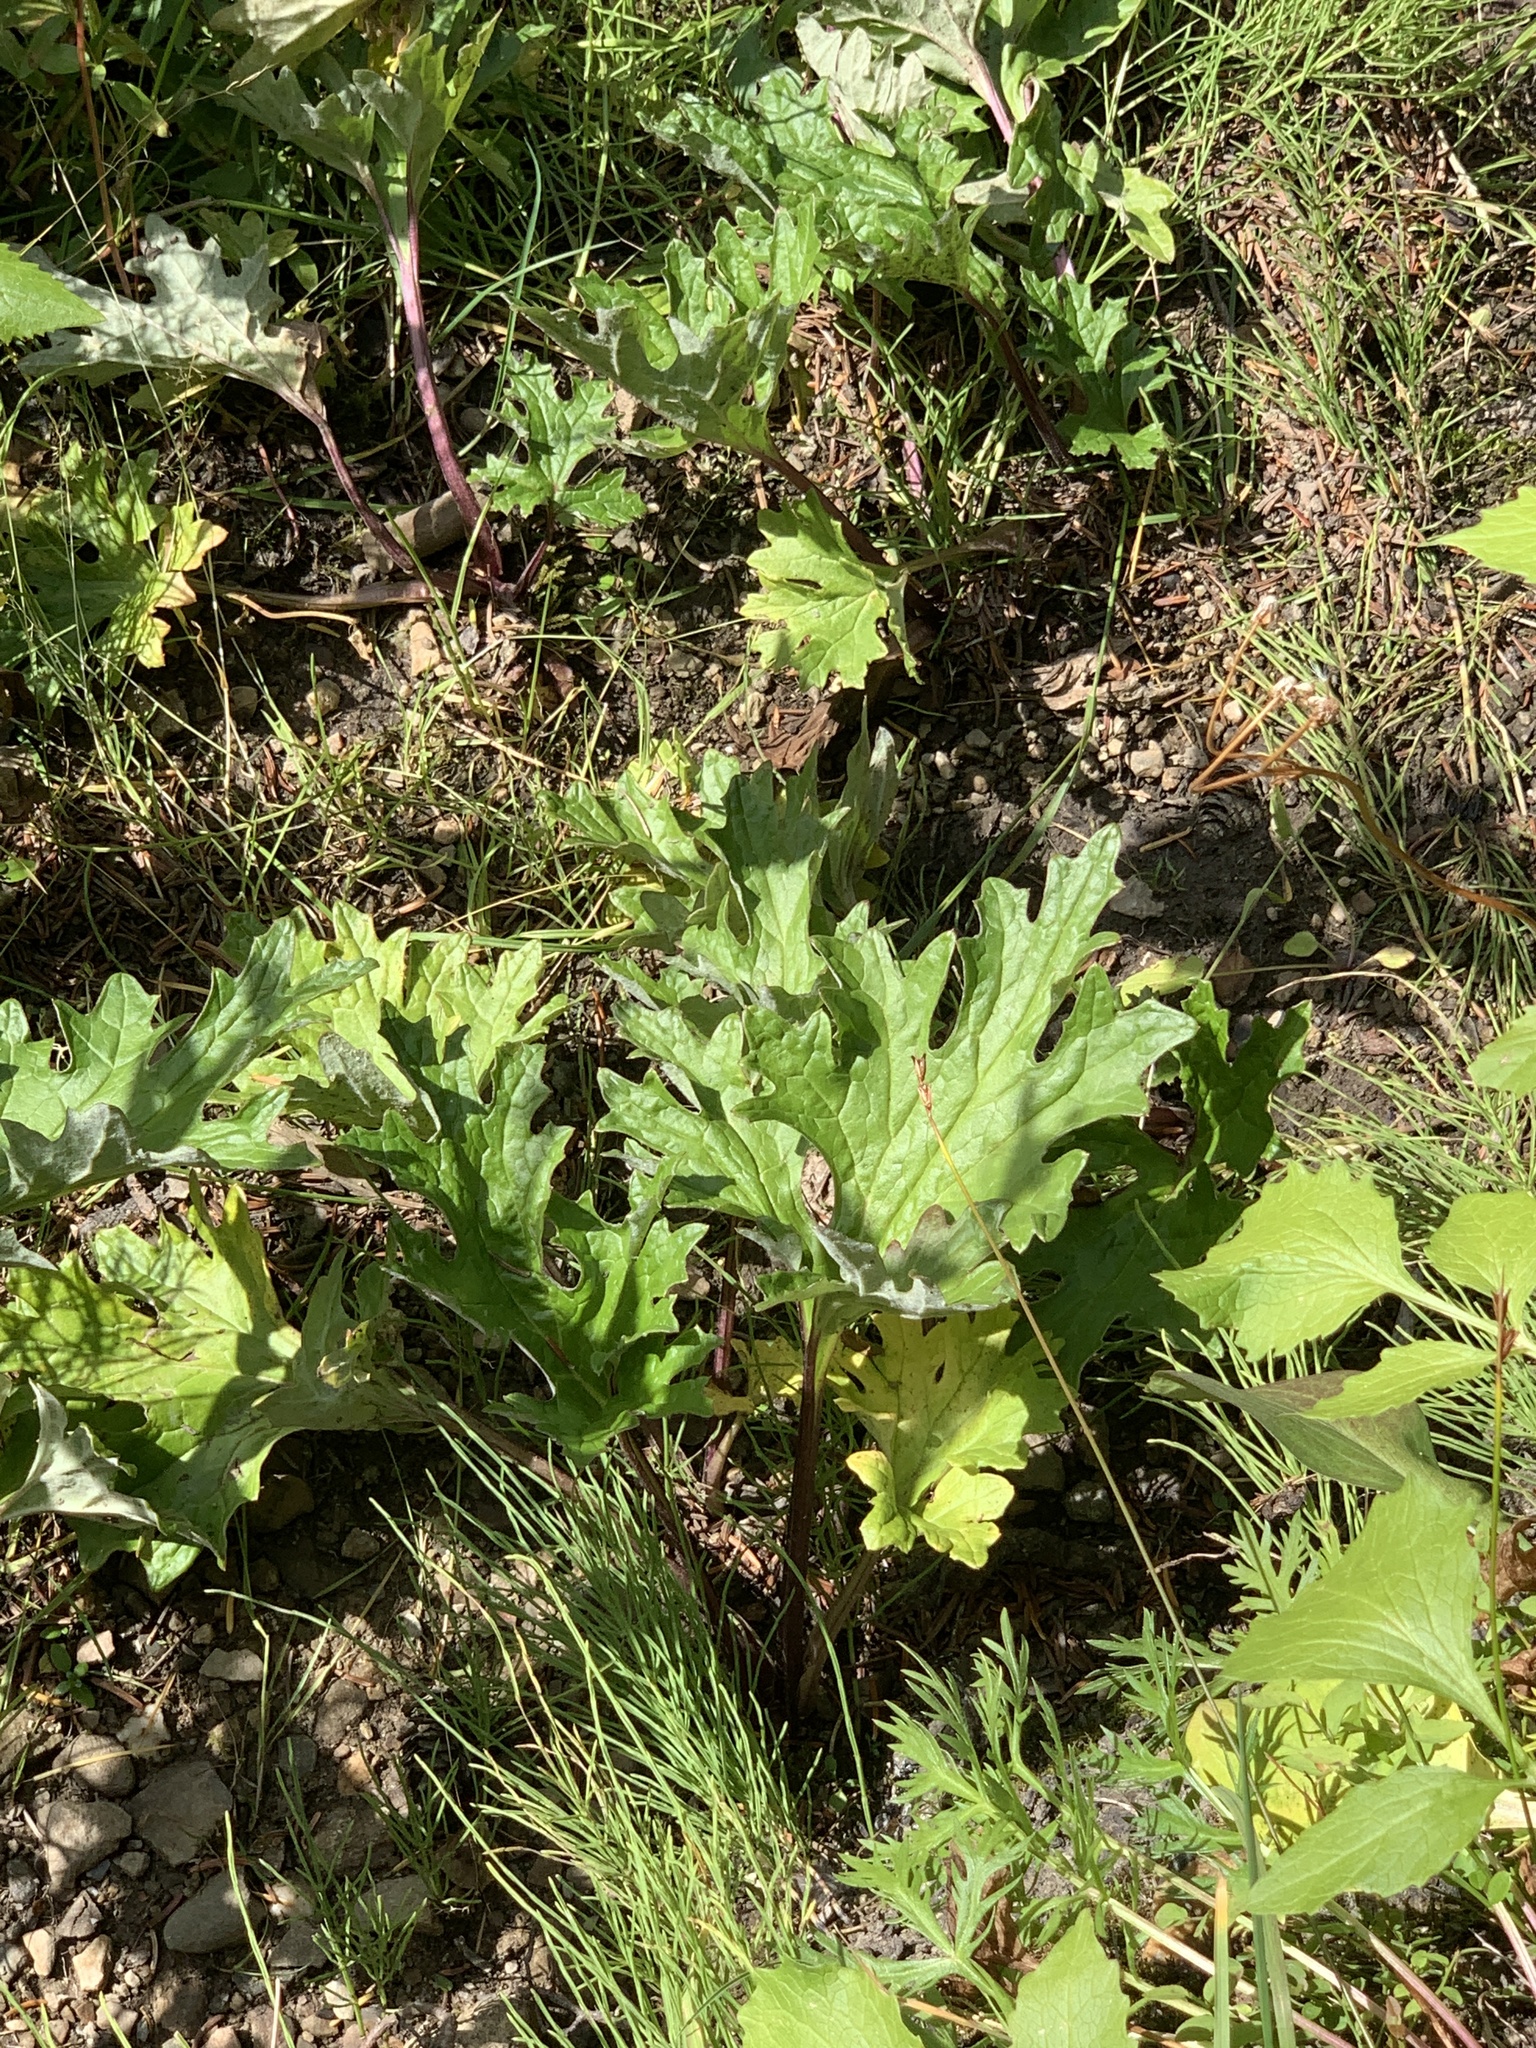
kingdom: Plantae
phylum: Tracheophyta
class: Magnoliopsida
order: Asterales
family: Asteraceae
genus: Petasites
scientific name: Petasites frigidus
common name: Arctic butterbur
